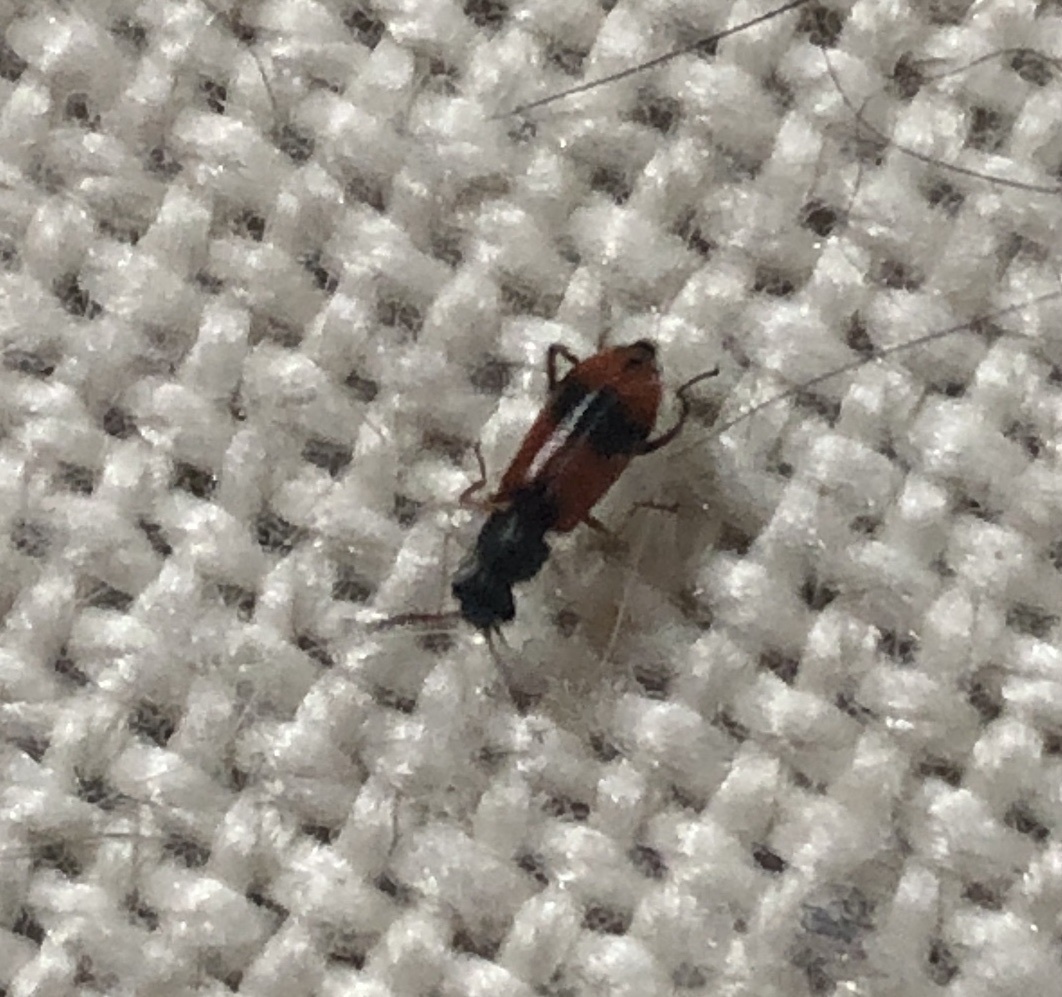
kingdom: Animalia
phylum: Arthropoda
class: Insecta
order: Coleoptera
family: Melyridae
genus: Anthocomus
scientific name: Anthocomus equestris
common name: Black-banded soft-winged flower beetle
